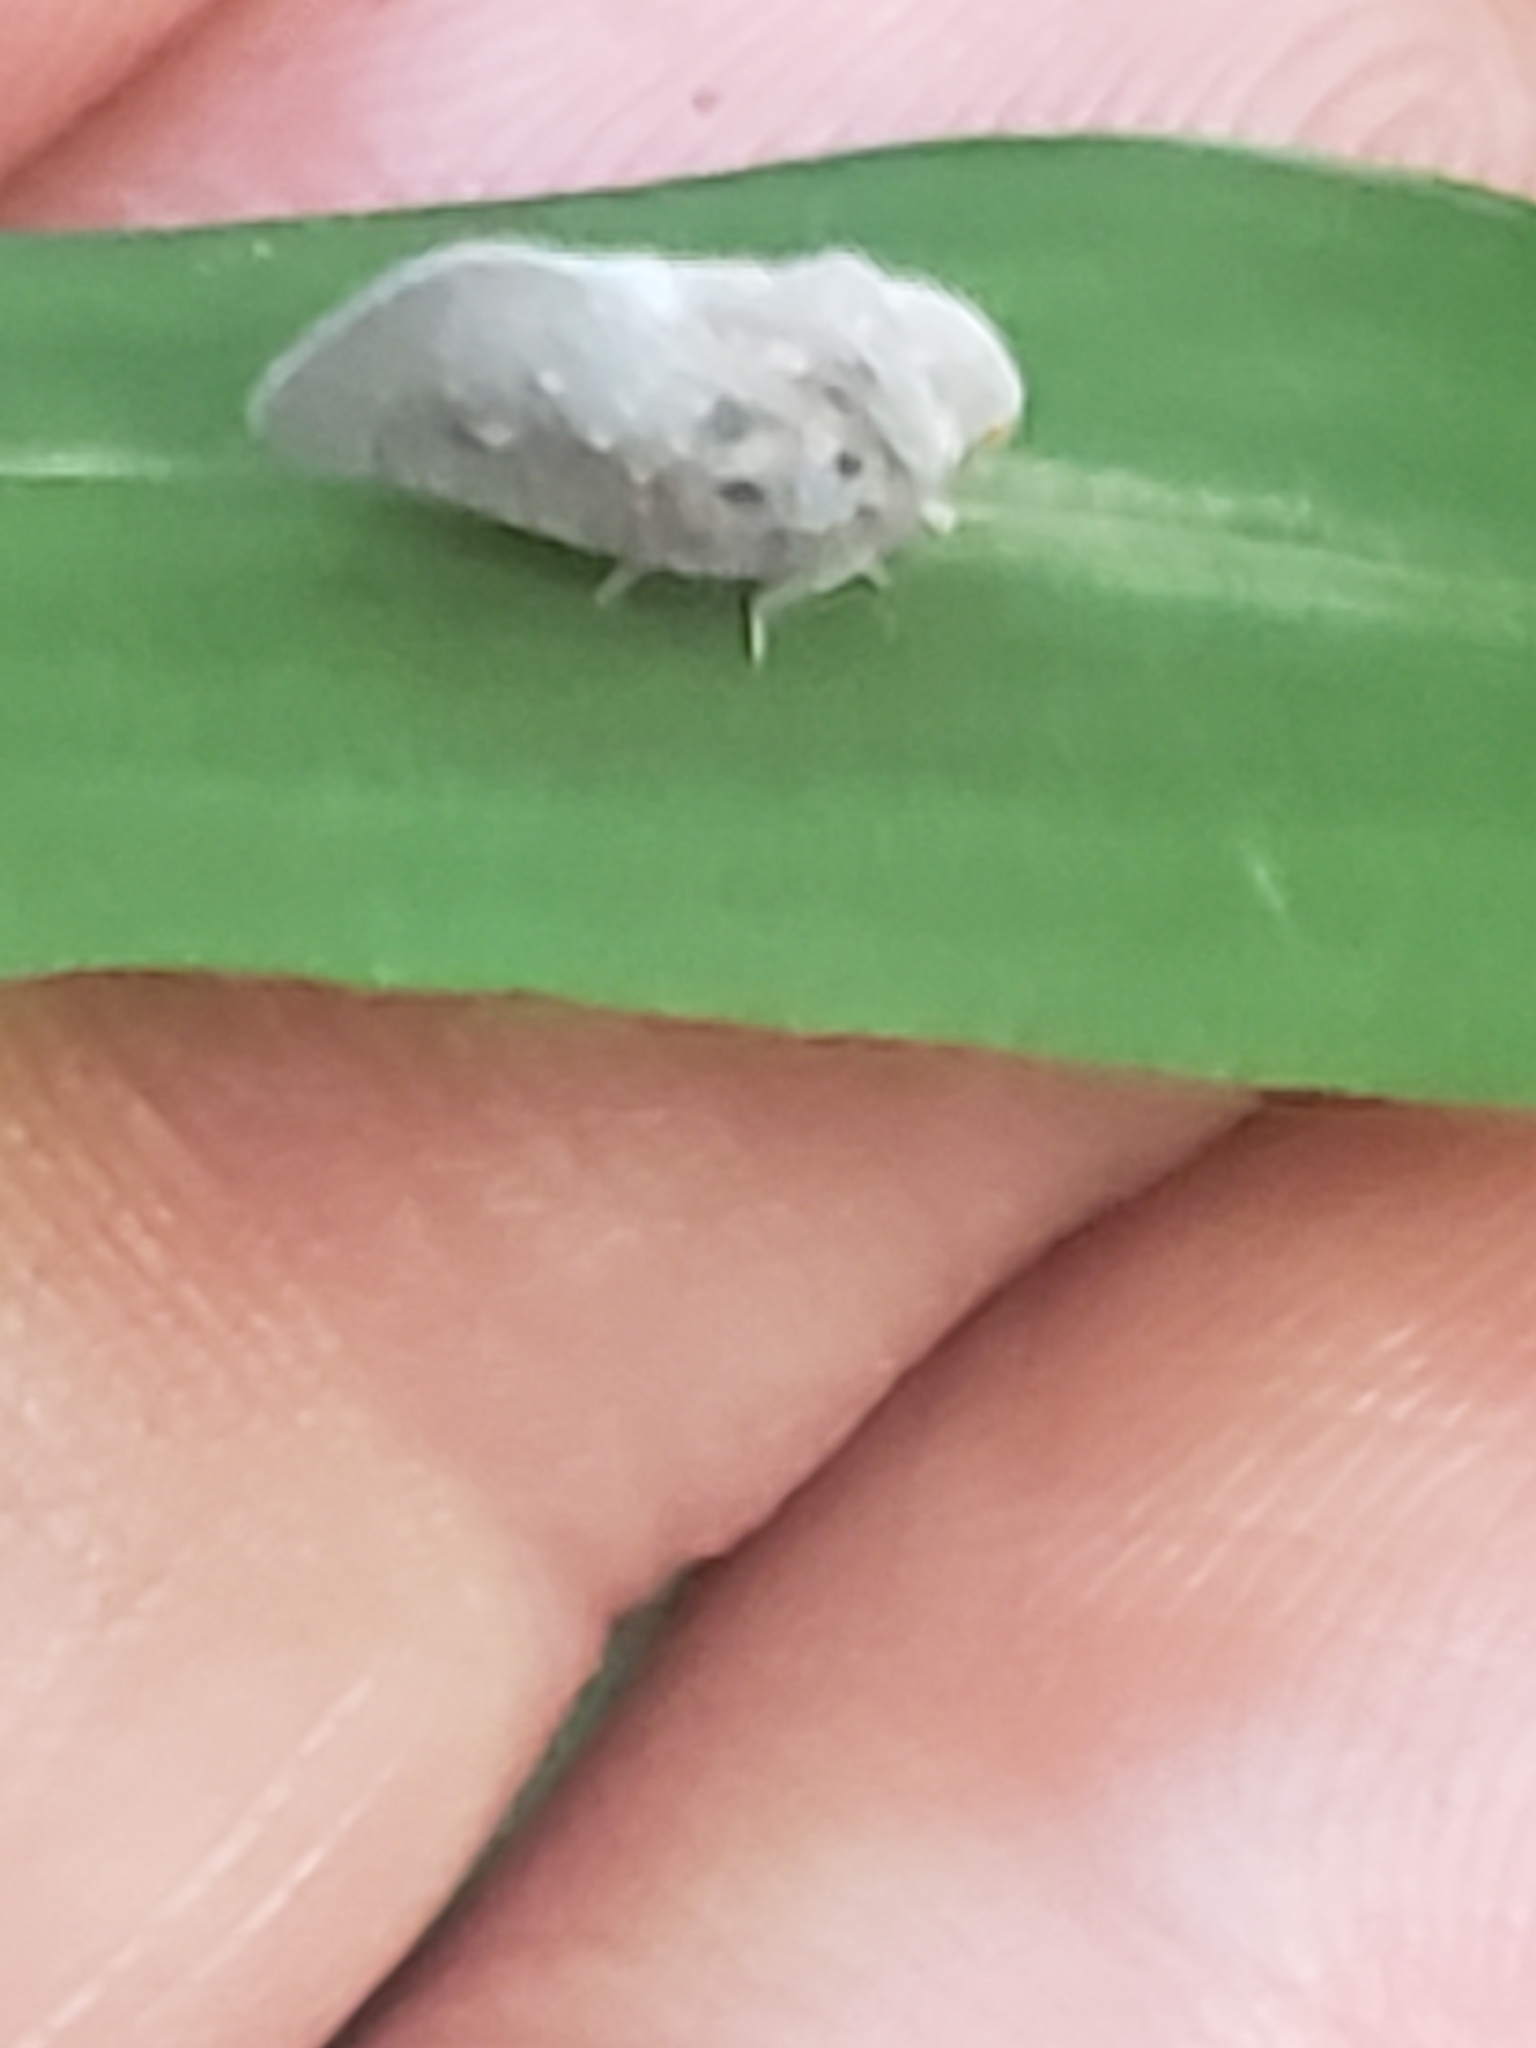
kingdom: Animalia
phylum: Arthropoda
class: Insecta
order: Hemiptera
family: Flatidae
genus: Metcalfa
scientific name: Metcalfa pruinosa
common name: Citrus flatid planthopper
